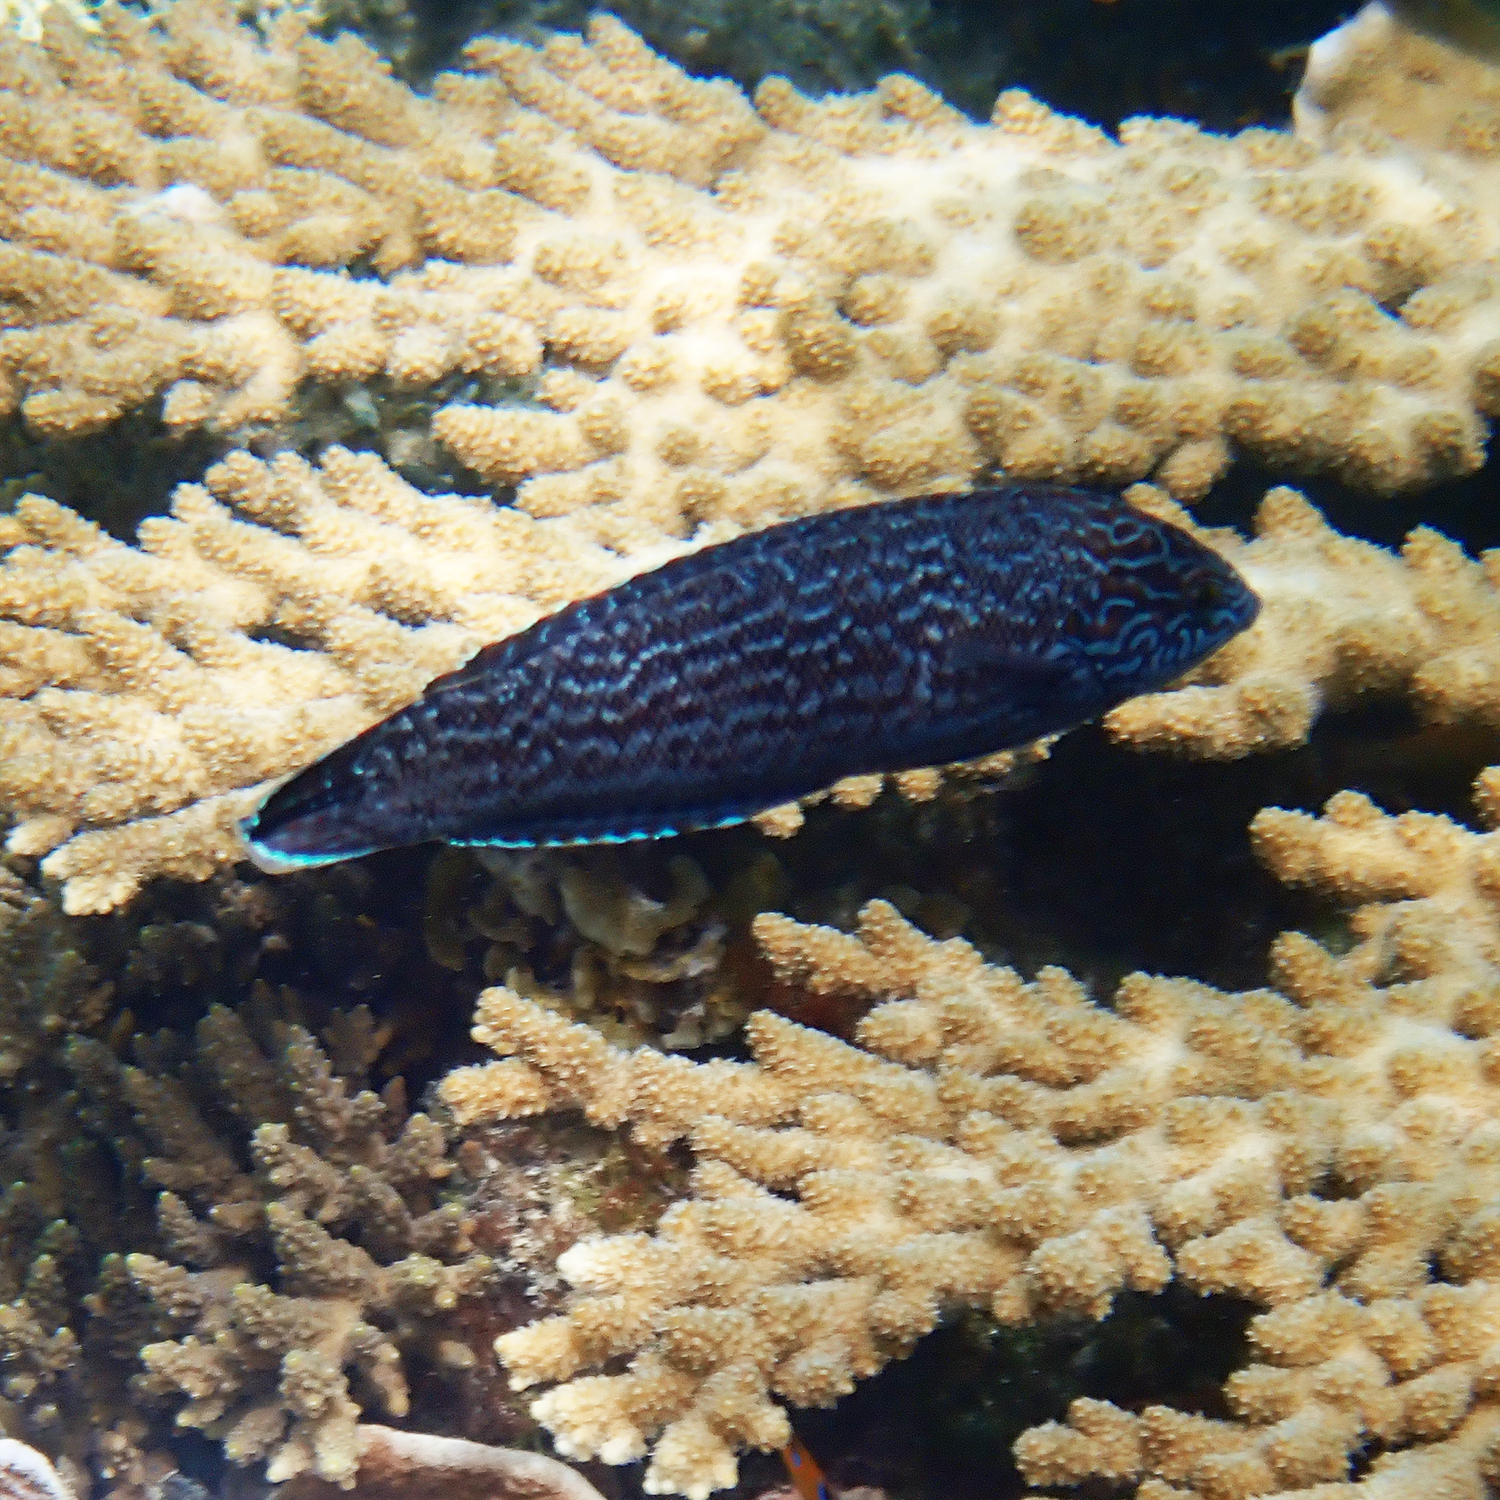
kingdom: Animalia
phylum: Chordata
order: Perciformes
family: Labridae
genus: Coris
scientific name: Coris bulbifrons
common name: Doubleheader
